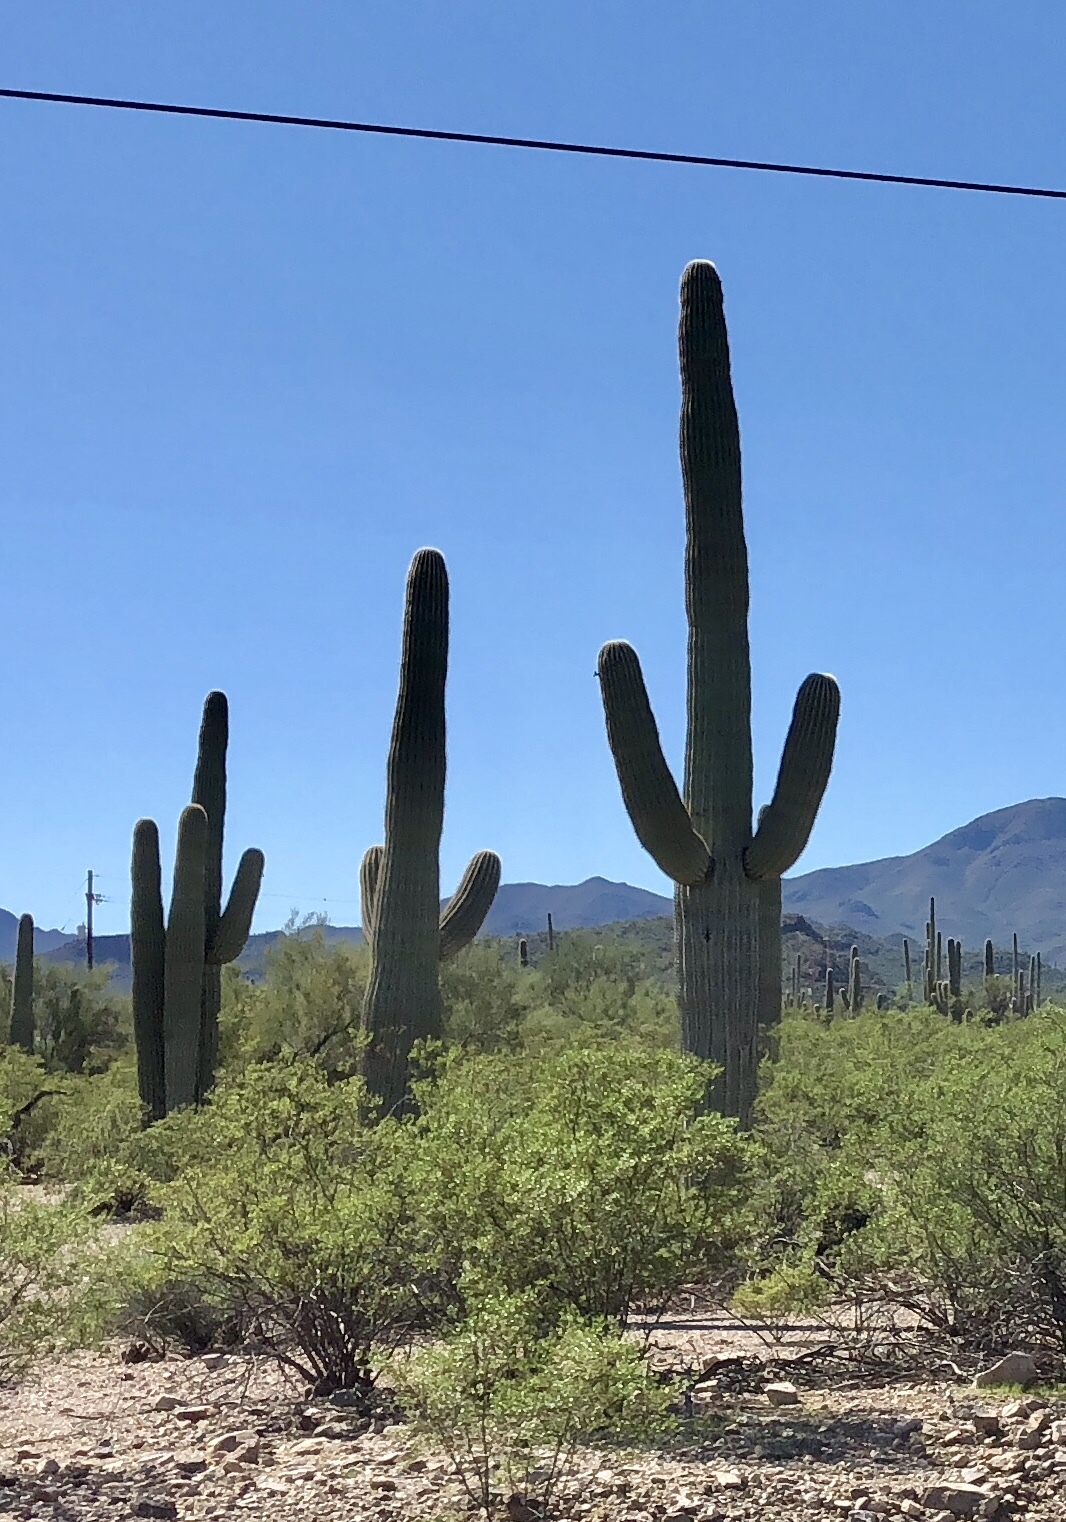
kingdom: Plantae
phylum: Tracheophyta
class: Magnoliopsida
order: Caryophyllales
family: Cactaceae
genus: Carnegiea
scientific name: Carnegiea gigantea
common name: Saguaro
